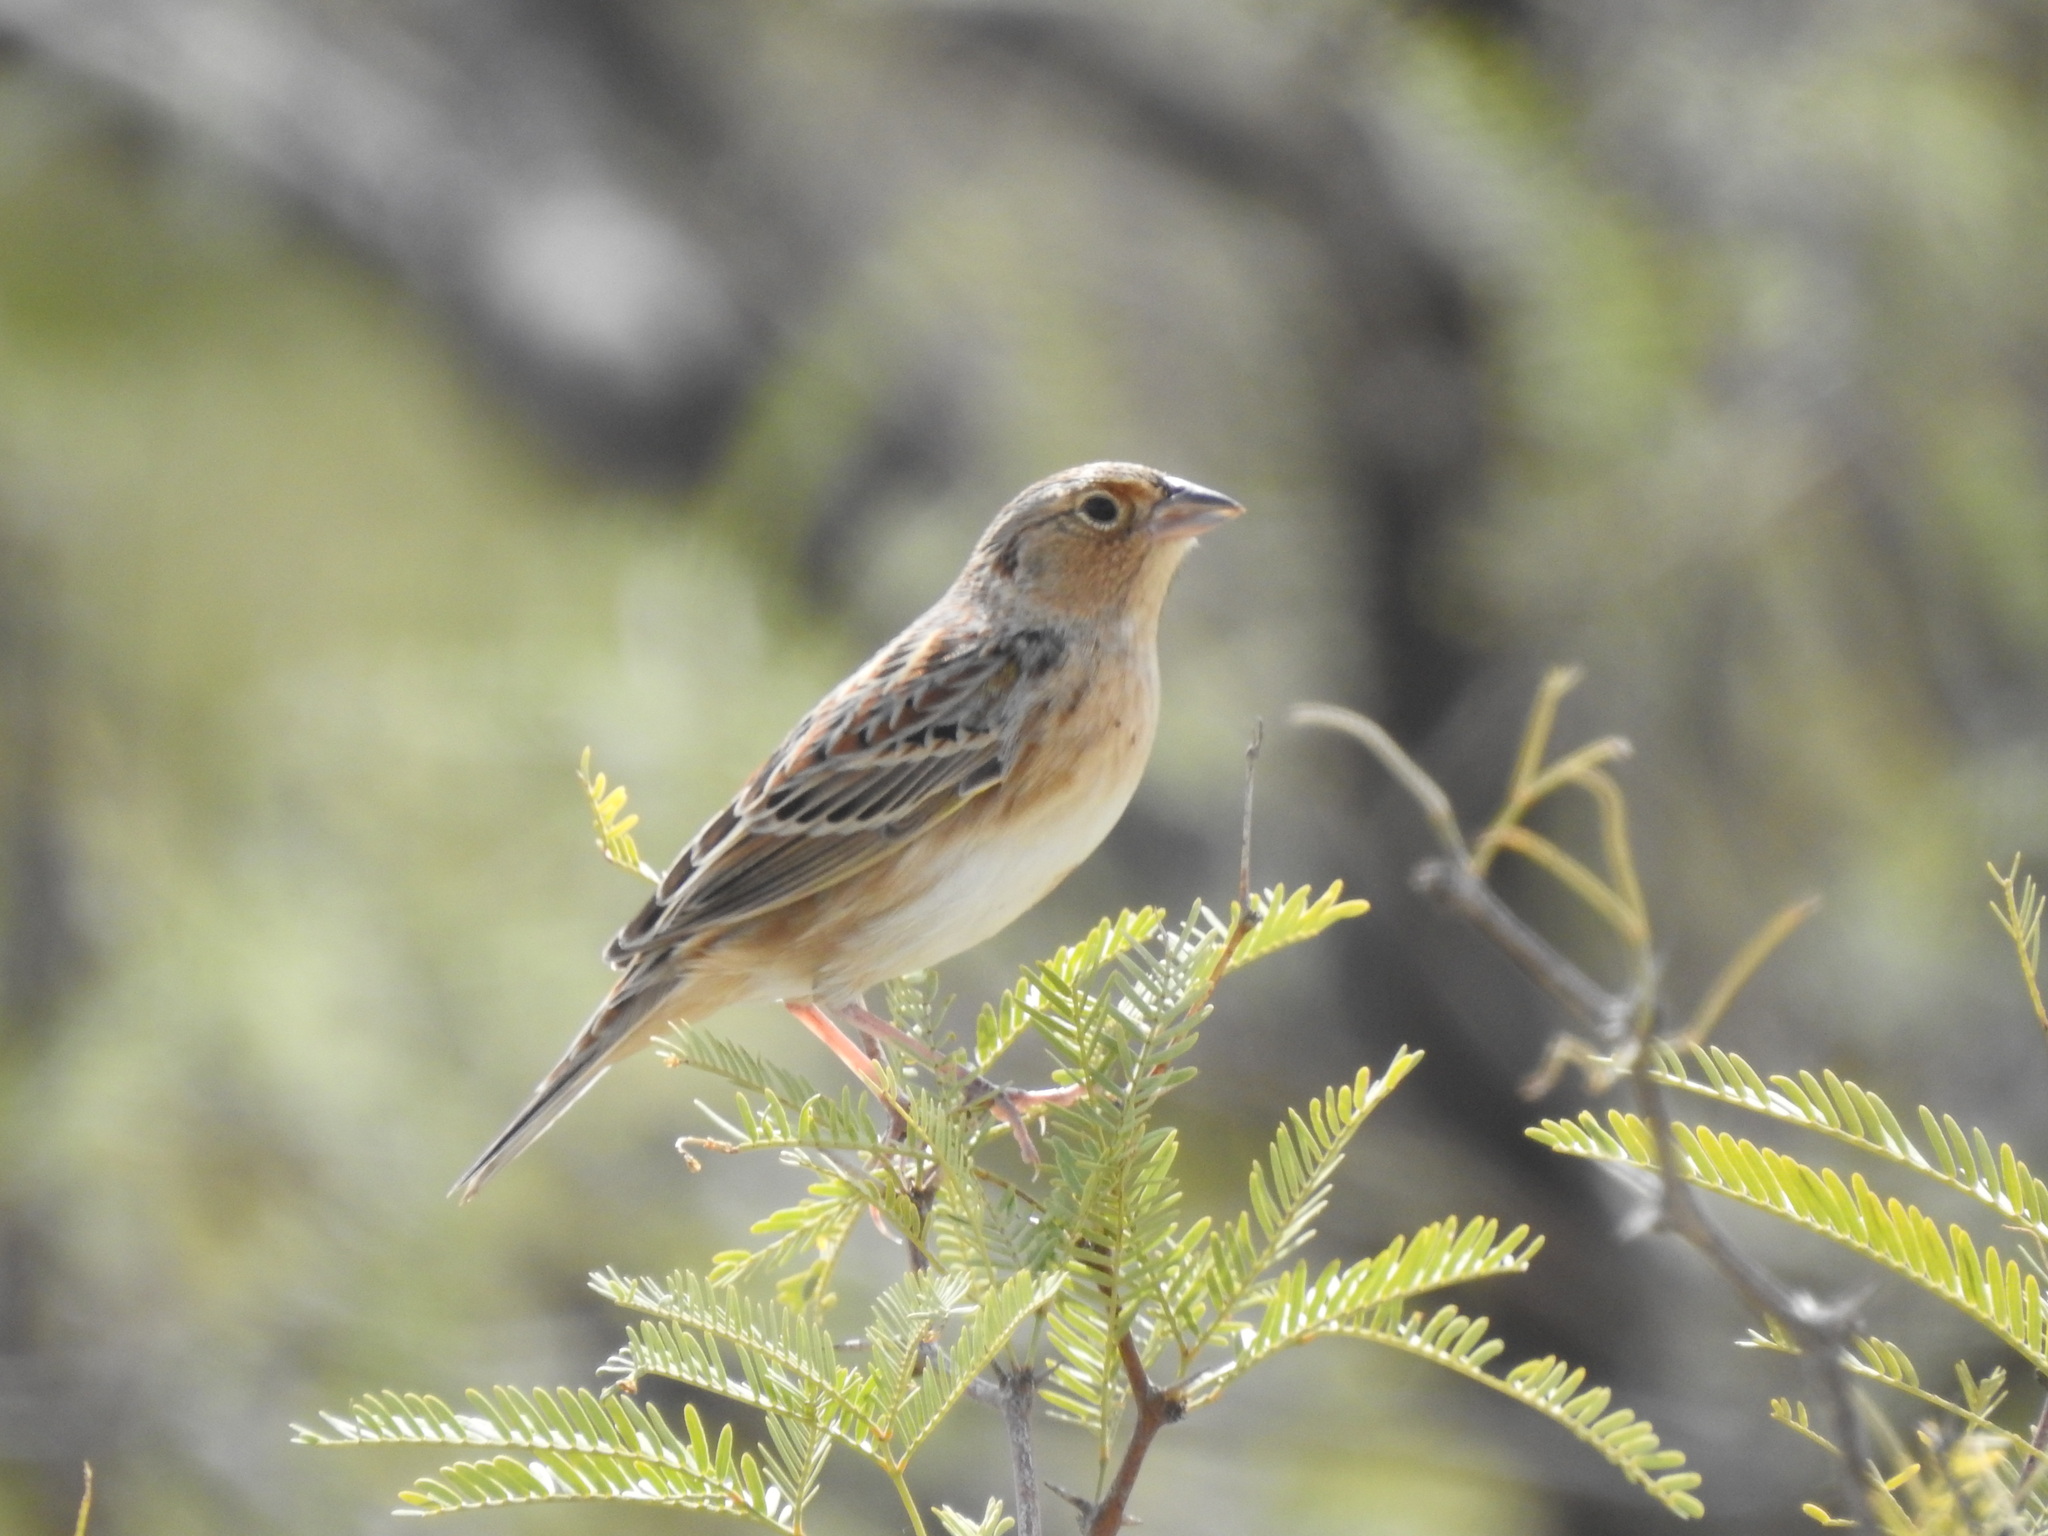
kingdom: Animalia
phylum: Chordata
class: Aves
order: Passeriformes
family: Passerellidae
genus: Ammodramus
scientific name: Ammodramus savannarum
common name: Grasshopper sparrow
